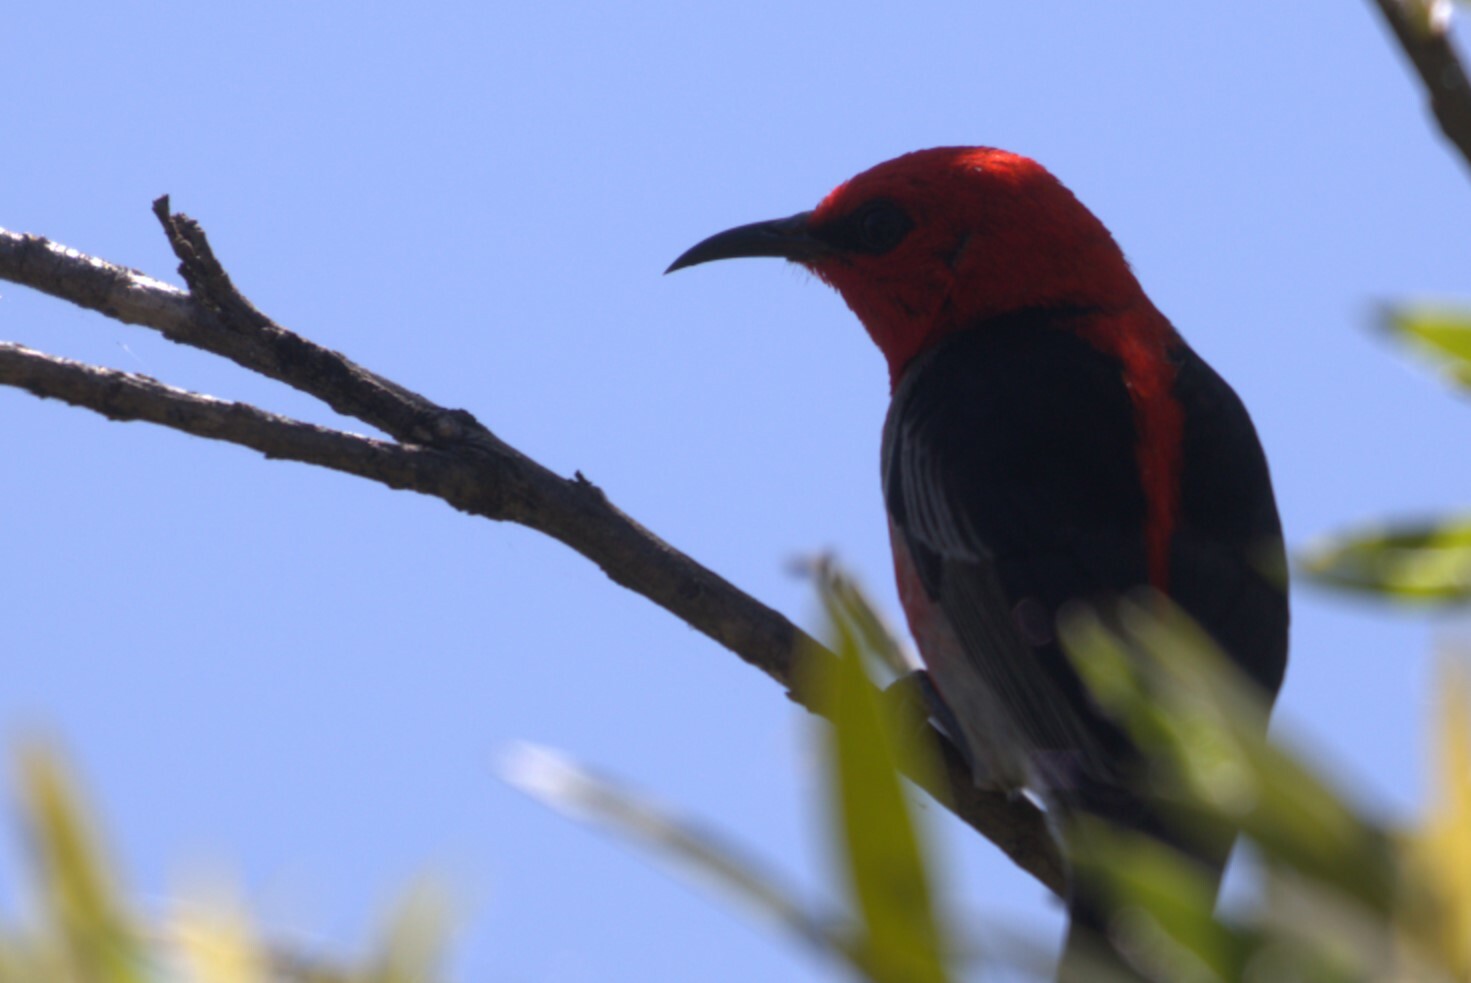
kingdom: Animalia
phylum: Chordata
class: Aves
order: Passeriformes
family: Meliphagidae
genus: Myzomela
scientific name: Myzomela sanguinolenta
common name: Scarlet myzomela
